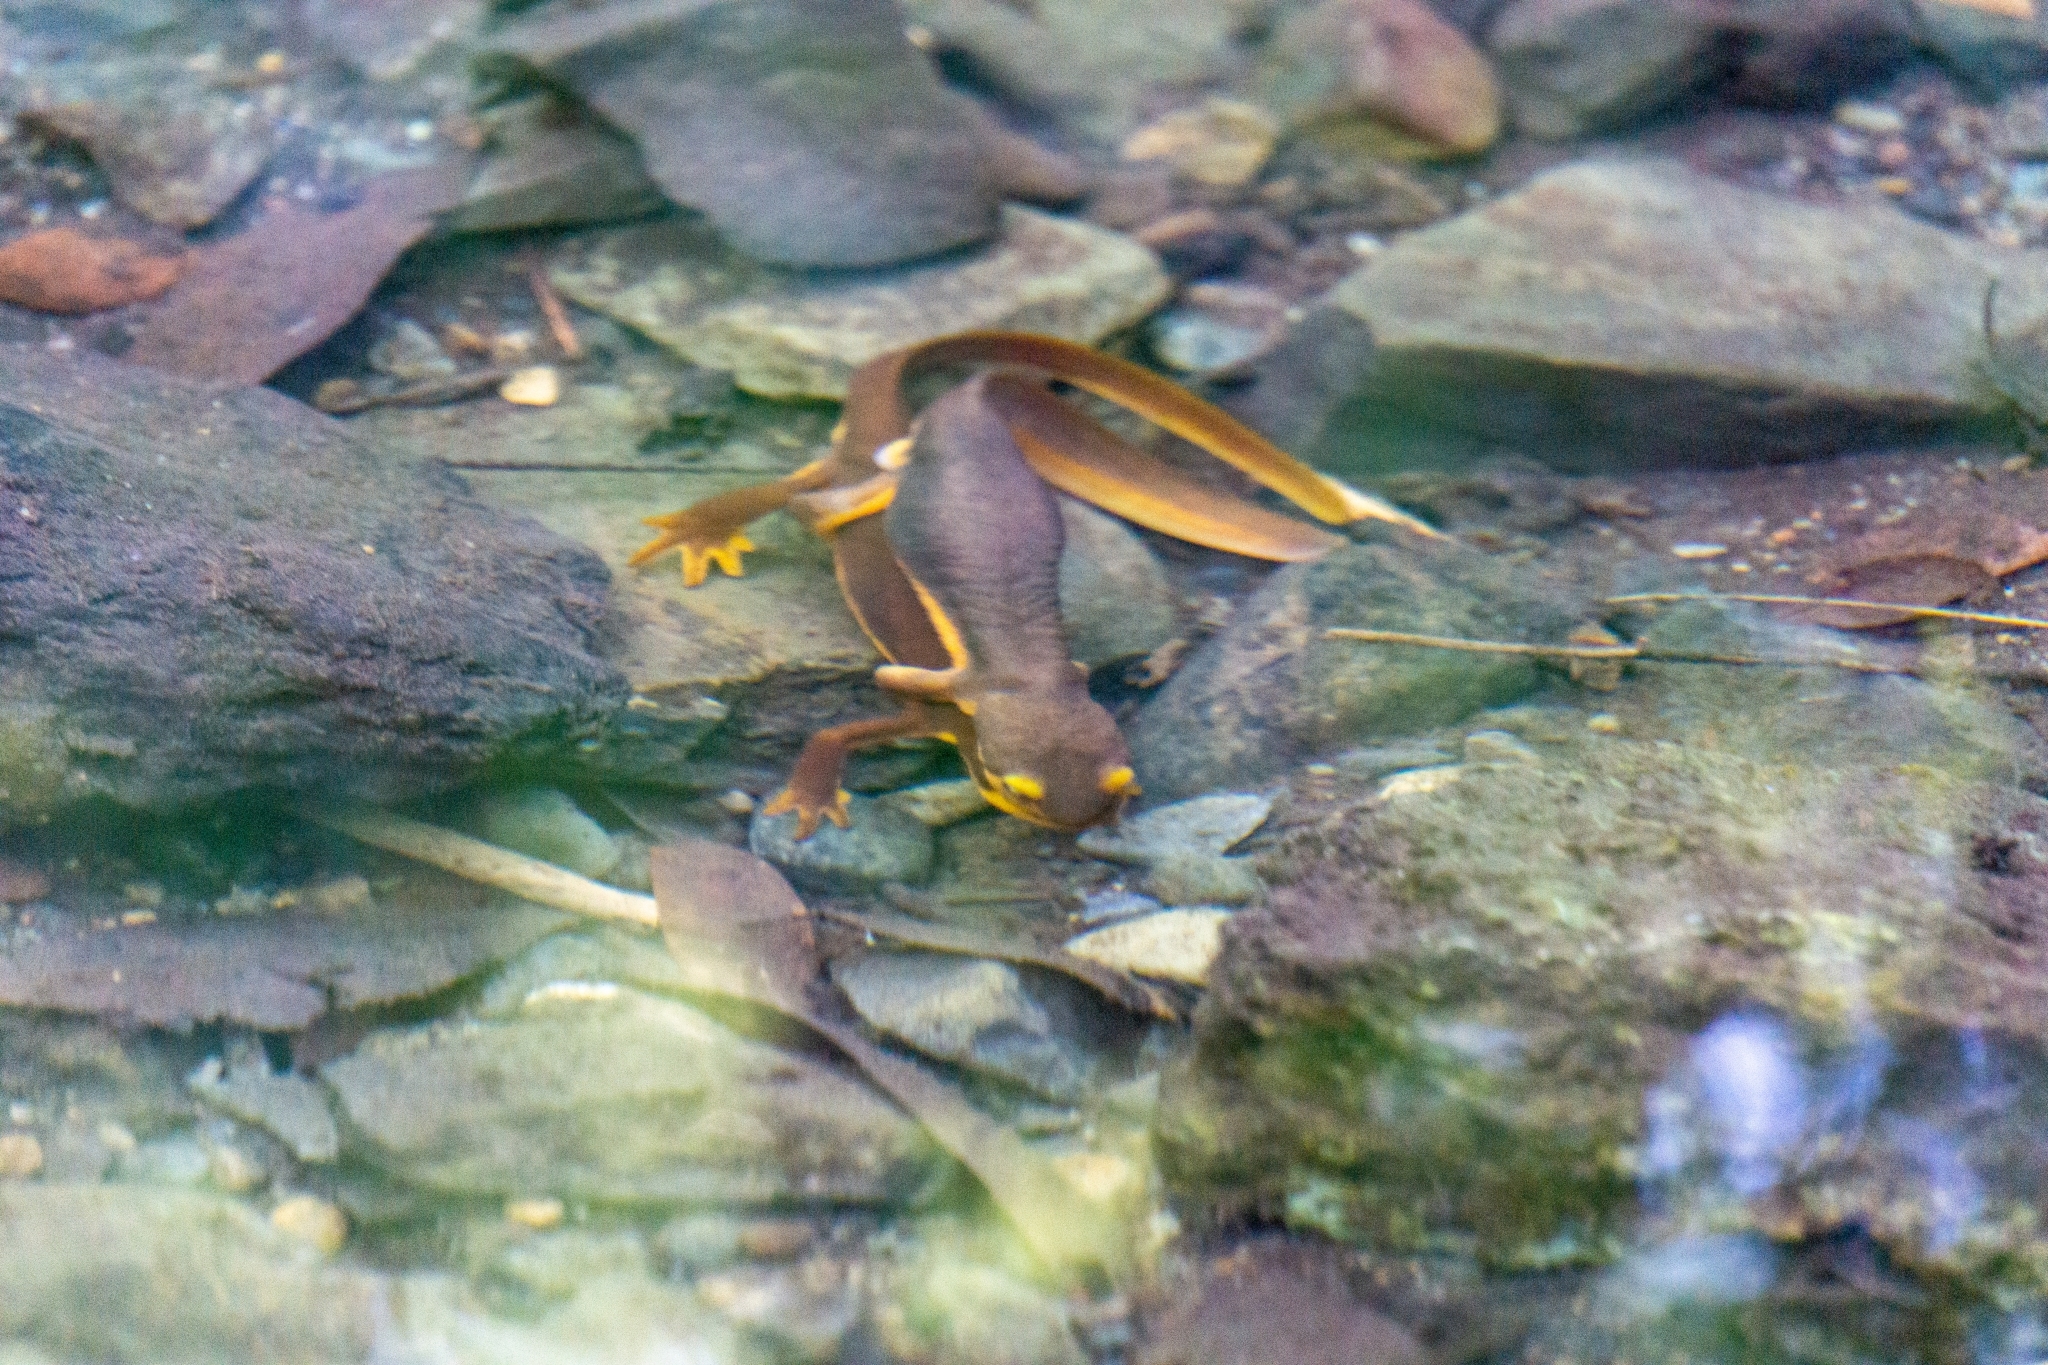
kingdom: Animalia
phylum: Chordata
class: Amphibia
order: Caudata
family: Salamandridae
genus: Taricha
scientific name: Taricha torosa
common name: California newt
